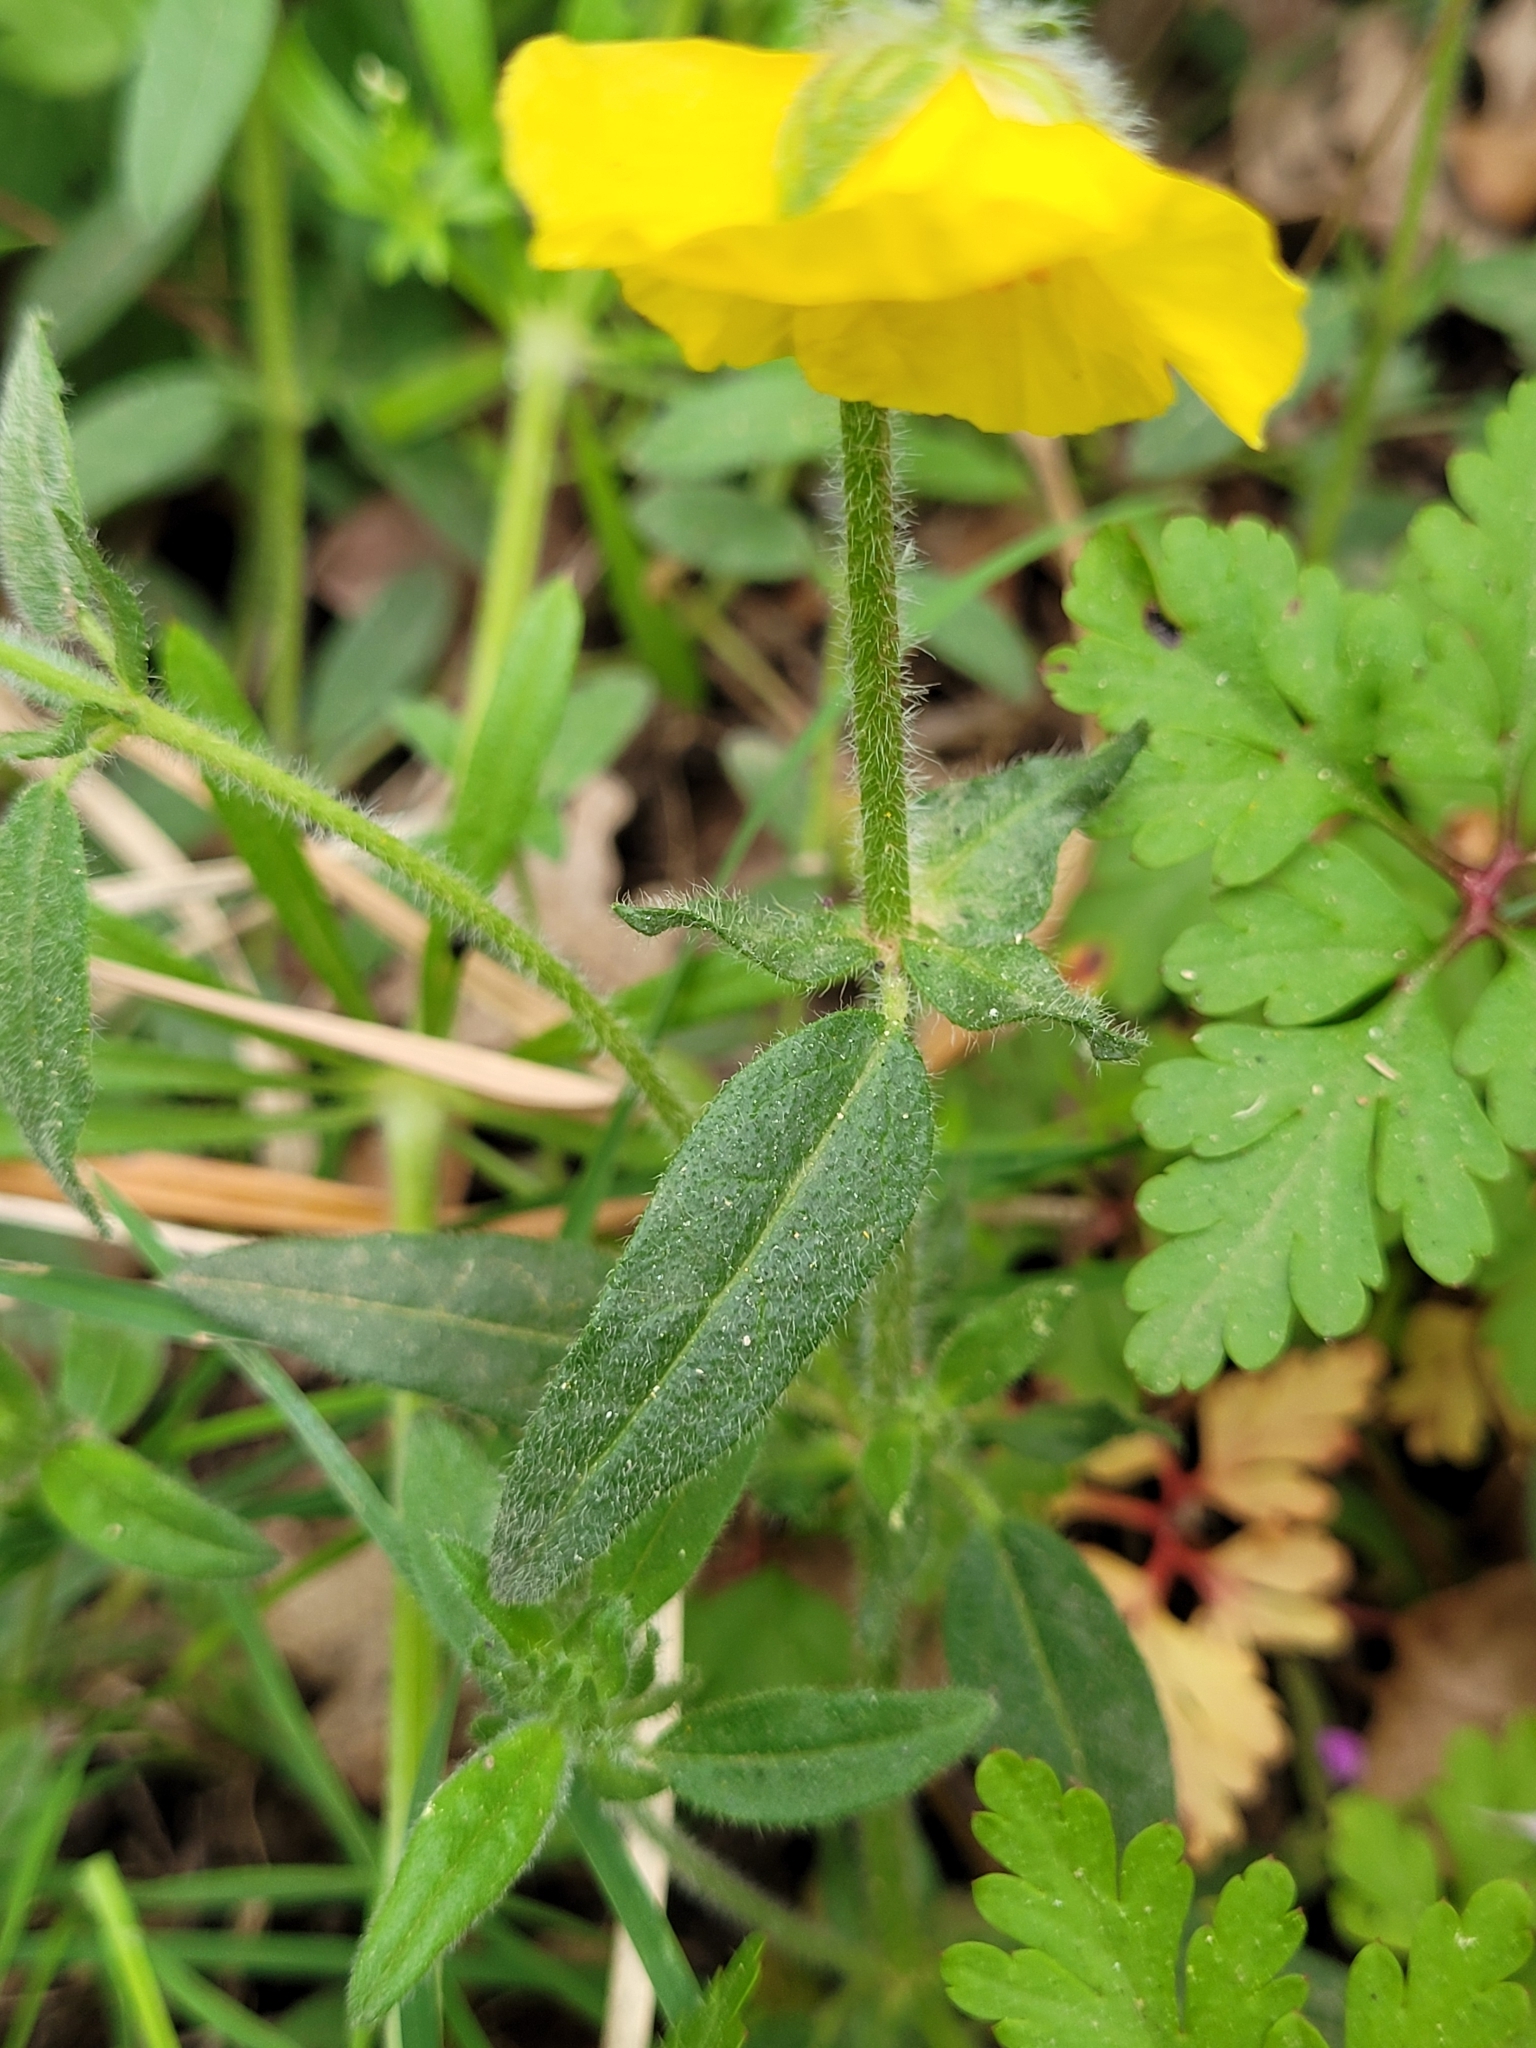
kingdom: Plantae
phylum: Tracheophyta
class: Magnoliopsida
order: Malvales
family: Cistaceae
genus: Helianthemum
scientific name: Helianthemum nummularium
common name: Common rock-rose
